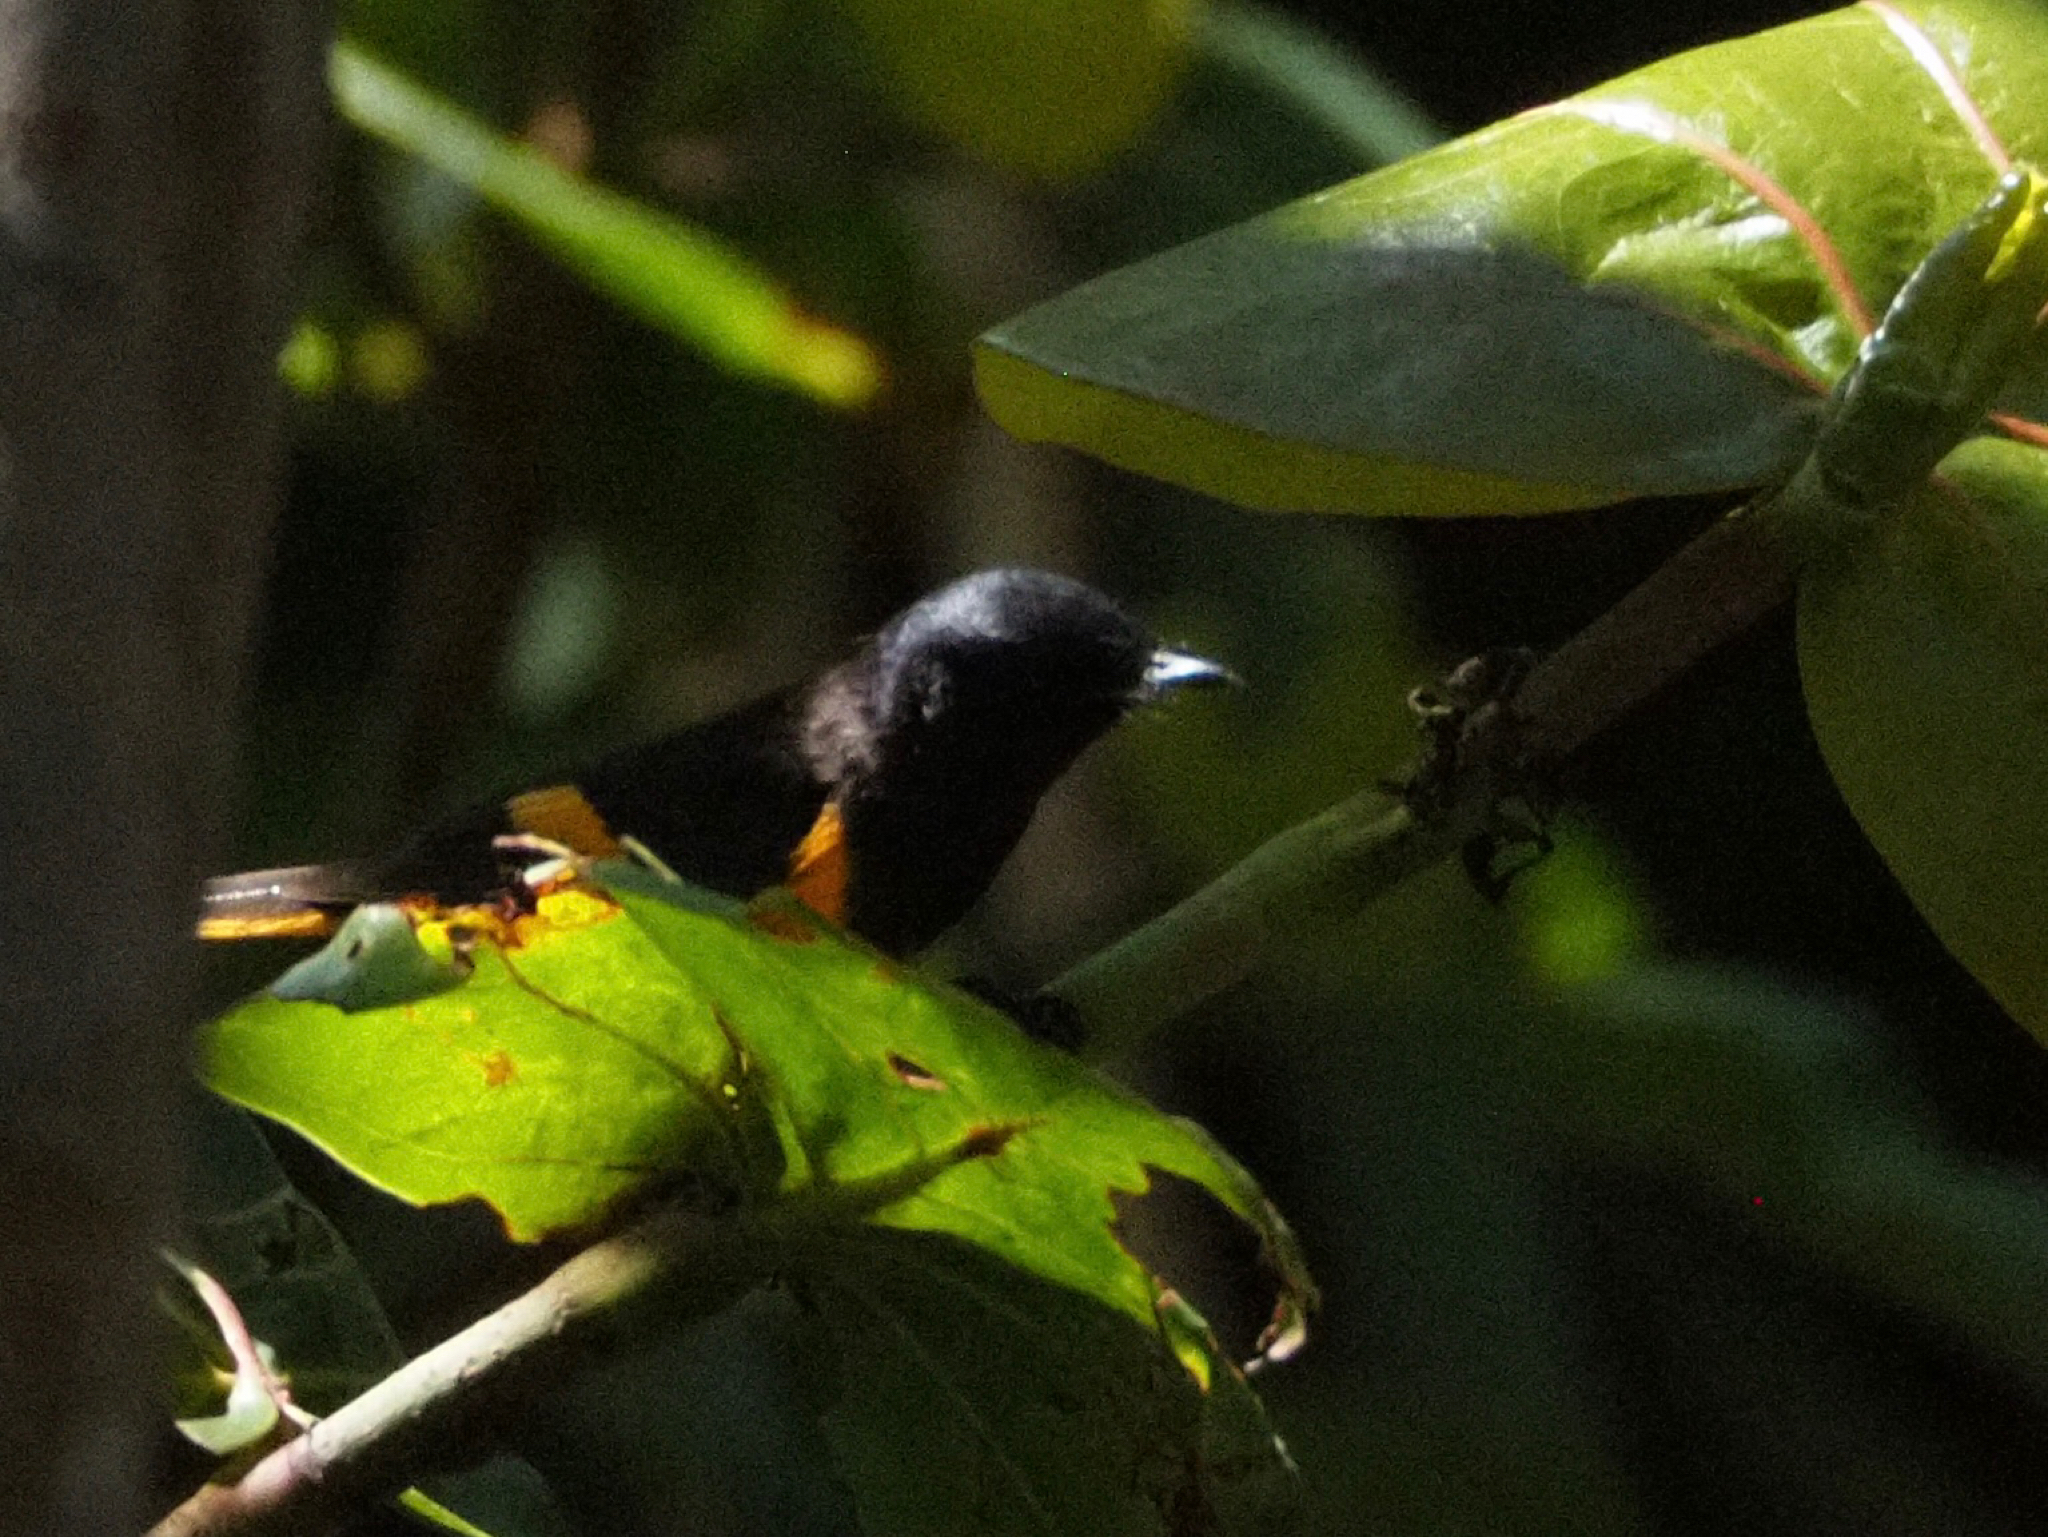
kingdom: Animalia
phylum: Chordata
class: Aves
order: Passeriformes
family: Parulidae
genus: Setophaga
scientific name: Setophaga ruticilla
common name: American redstart
